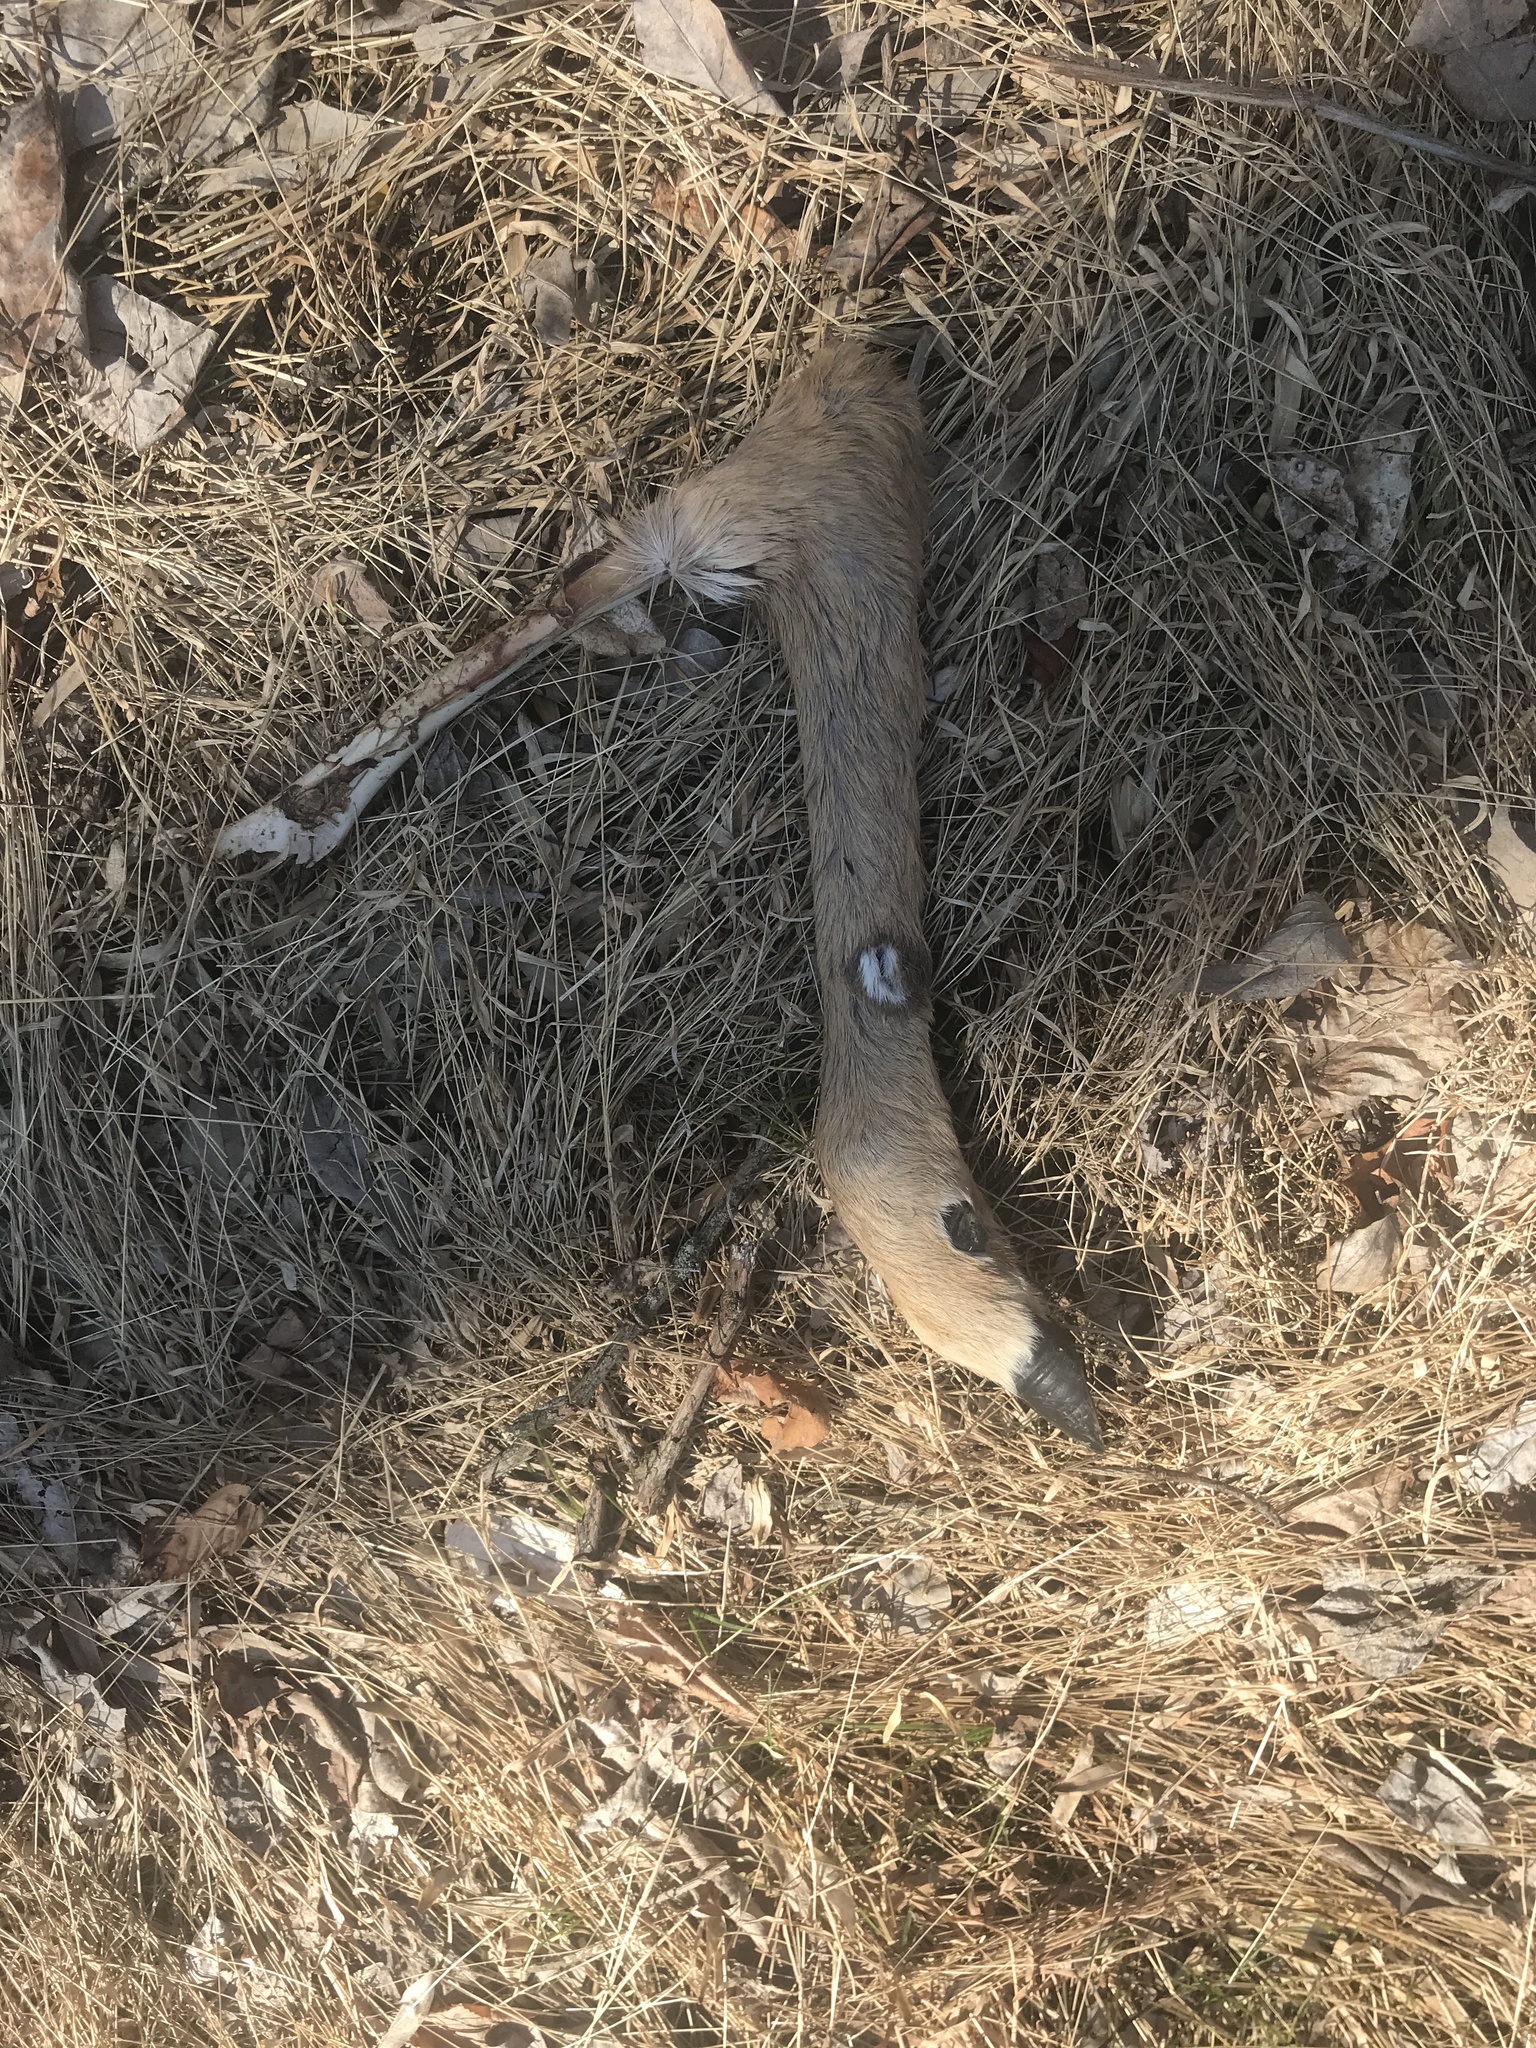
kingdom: Animalia
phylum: Chordata
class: Mammalia
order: Artiodactyla
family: Cervidae
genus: Odocoileus
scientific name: Odocoileus virginianus
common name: White-tailed deer
